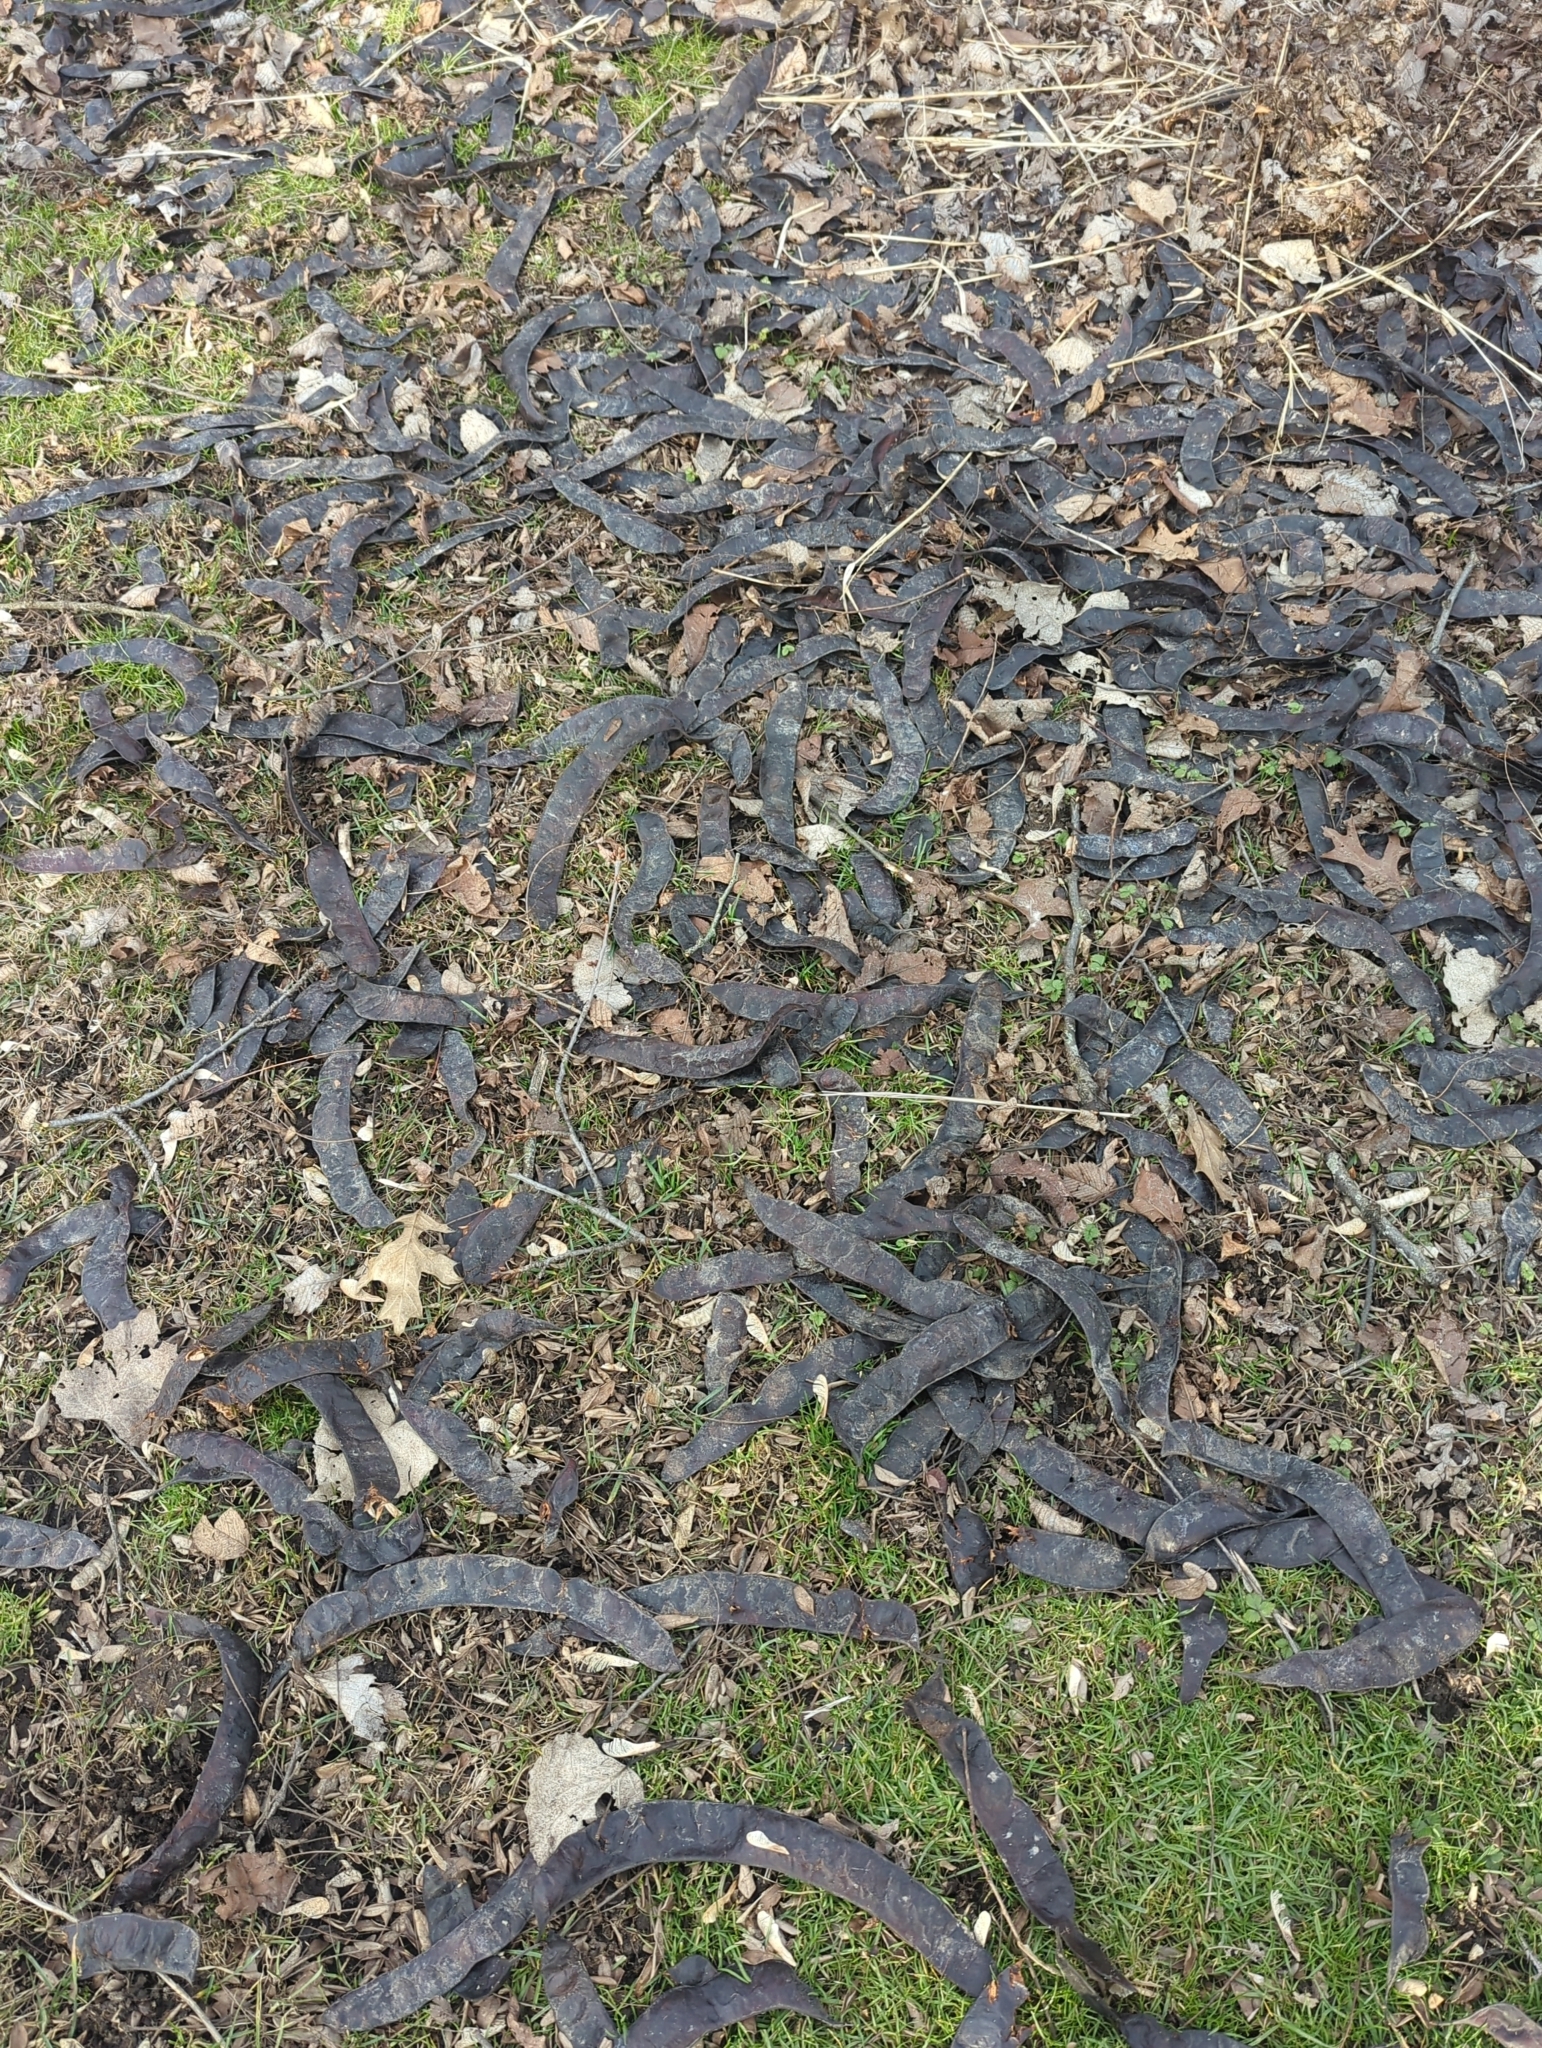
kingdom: Plantae
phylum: Tracheophyta
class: Magnoliopsida
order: Fabales
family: Fabaceae
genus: Gleditsia
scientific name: Gleditsia triacanthos
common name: Common honeylocust
